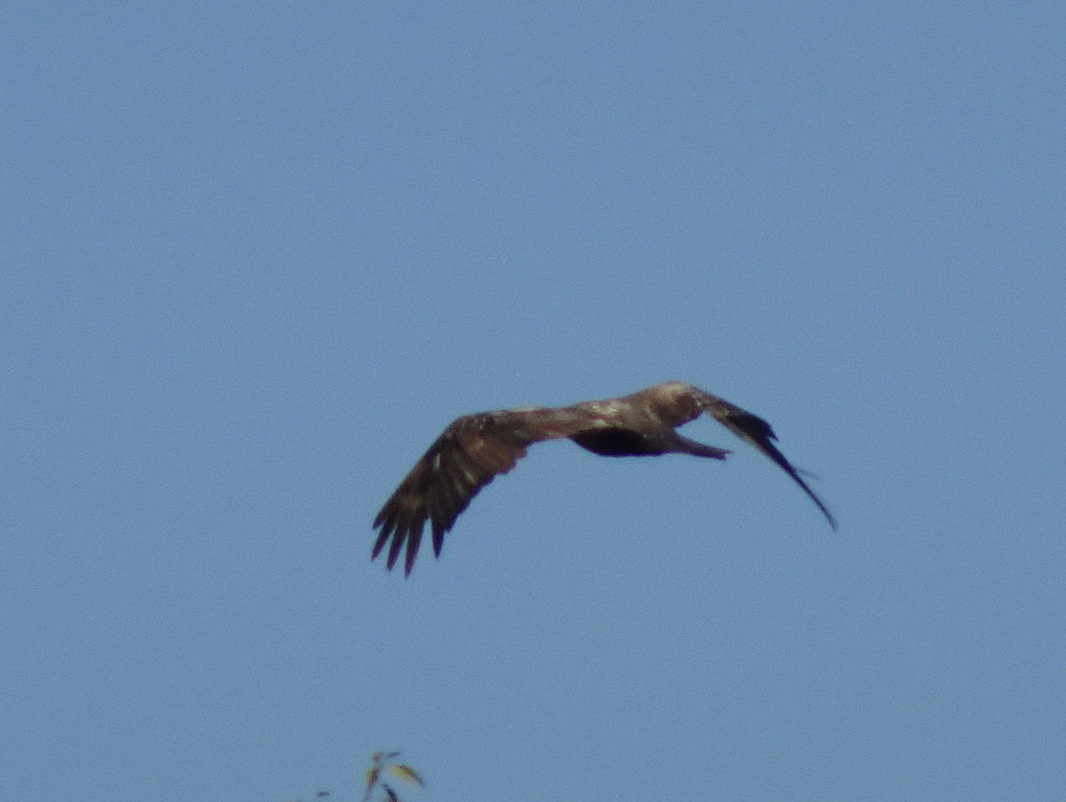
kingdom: Animalia
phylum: Chordata
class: Aves
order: Accipitriformes
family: Accipitridae
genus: Haliaeetus
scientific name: Haliaeetus leucocephalus
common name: Bald eagle
